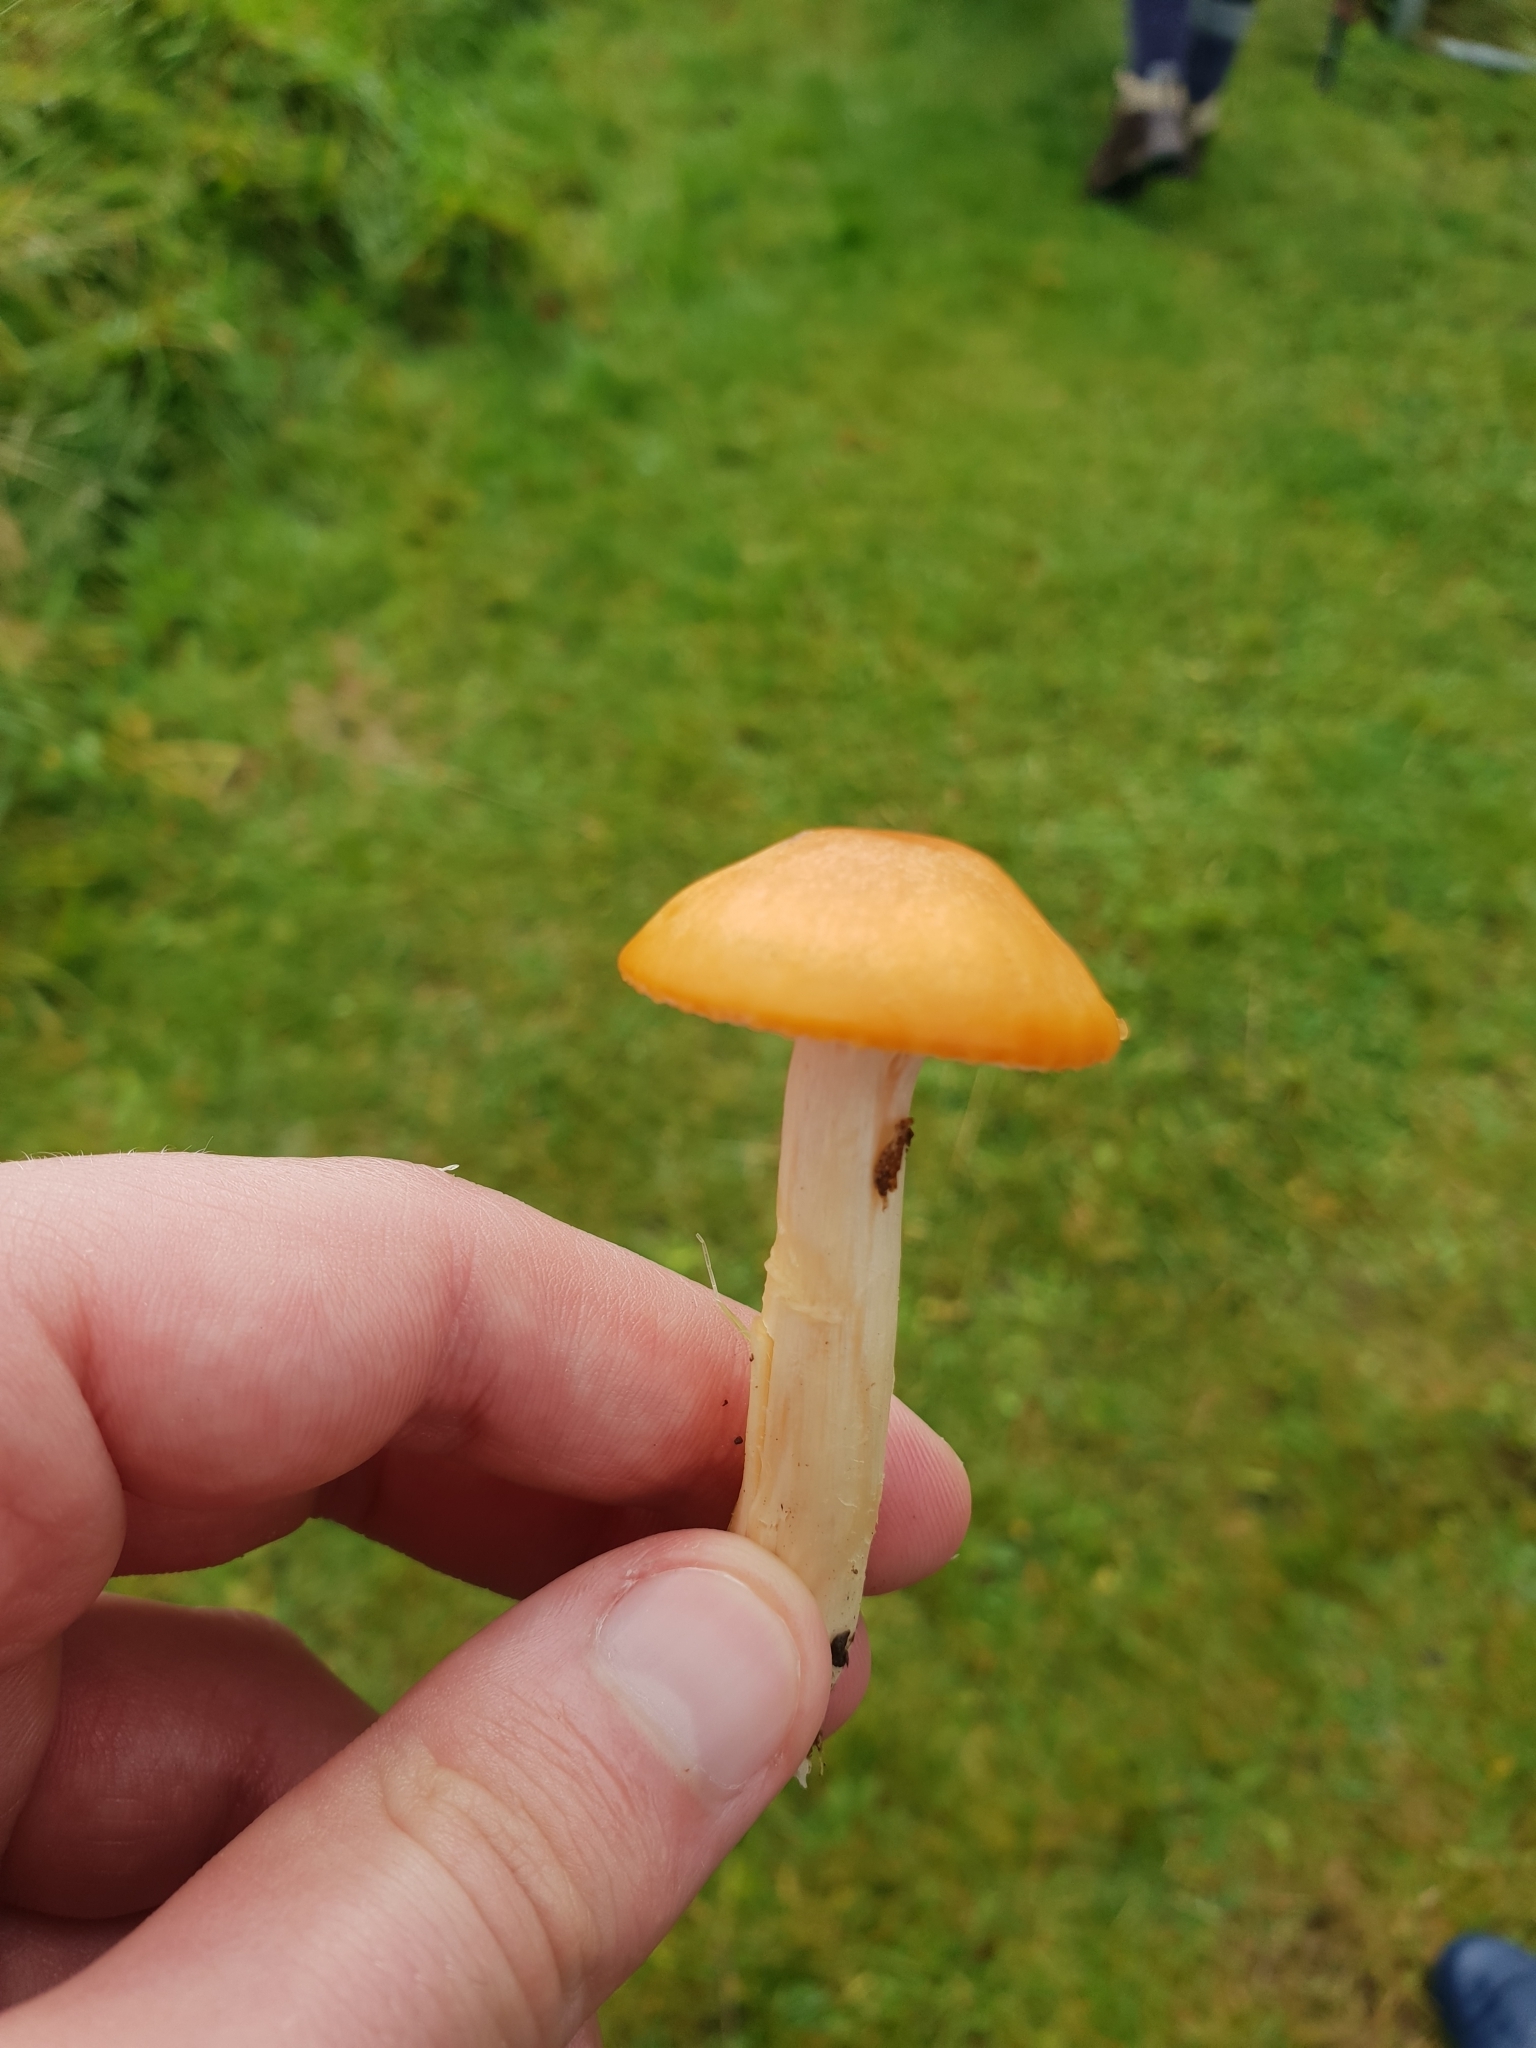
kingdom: Fungi
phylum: Basidiomycota
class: Agaricomycetes
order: Agaricales
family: Hygrophoraceae
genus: Cuphophyllus
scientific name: Cuphophyllus pratensis
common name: Meadow waxcap
